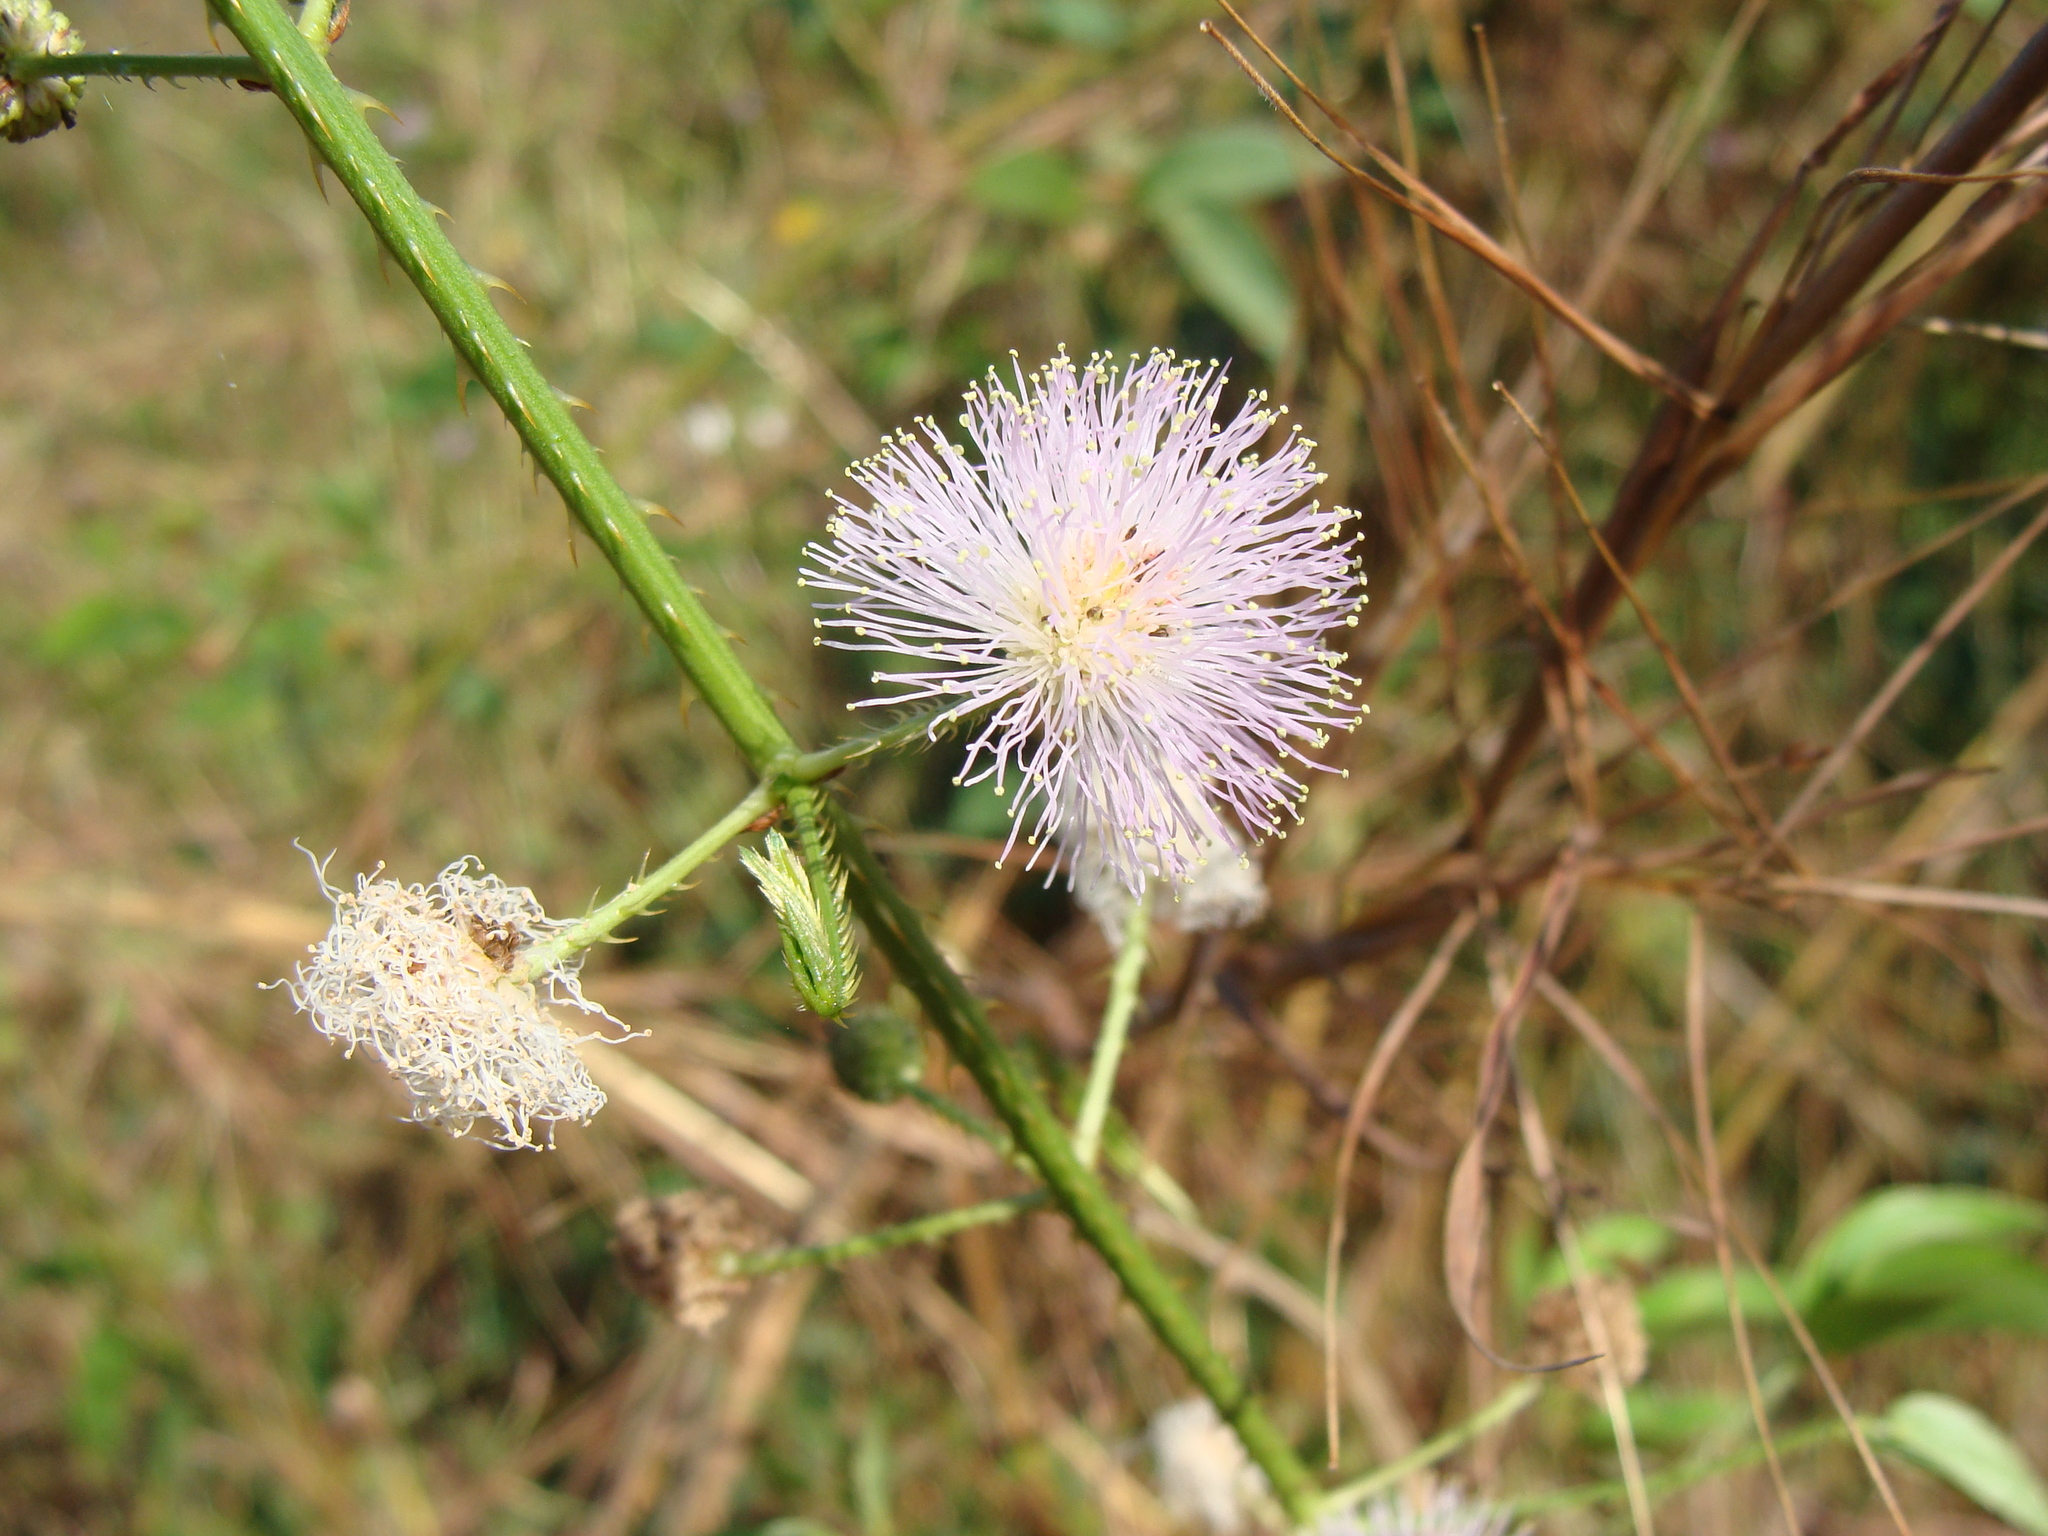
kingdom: Plantae
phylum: Tracheophyta
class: Magnoliopsida
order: Fabales
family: Fabaceae
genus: Mimosa
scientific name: Mimosa albida
